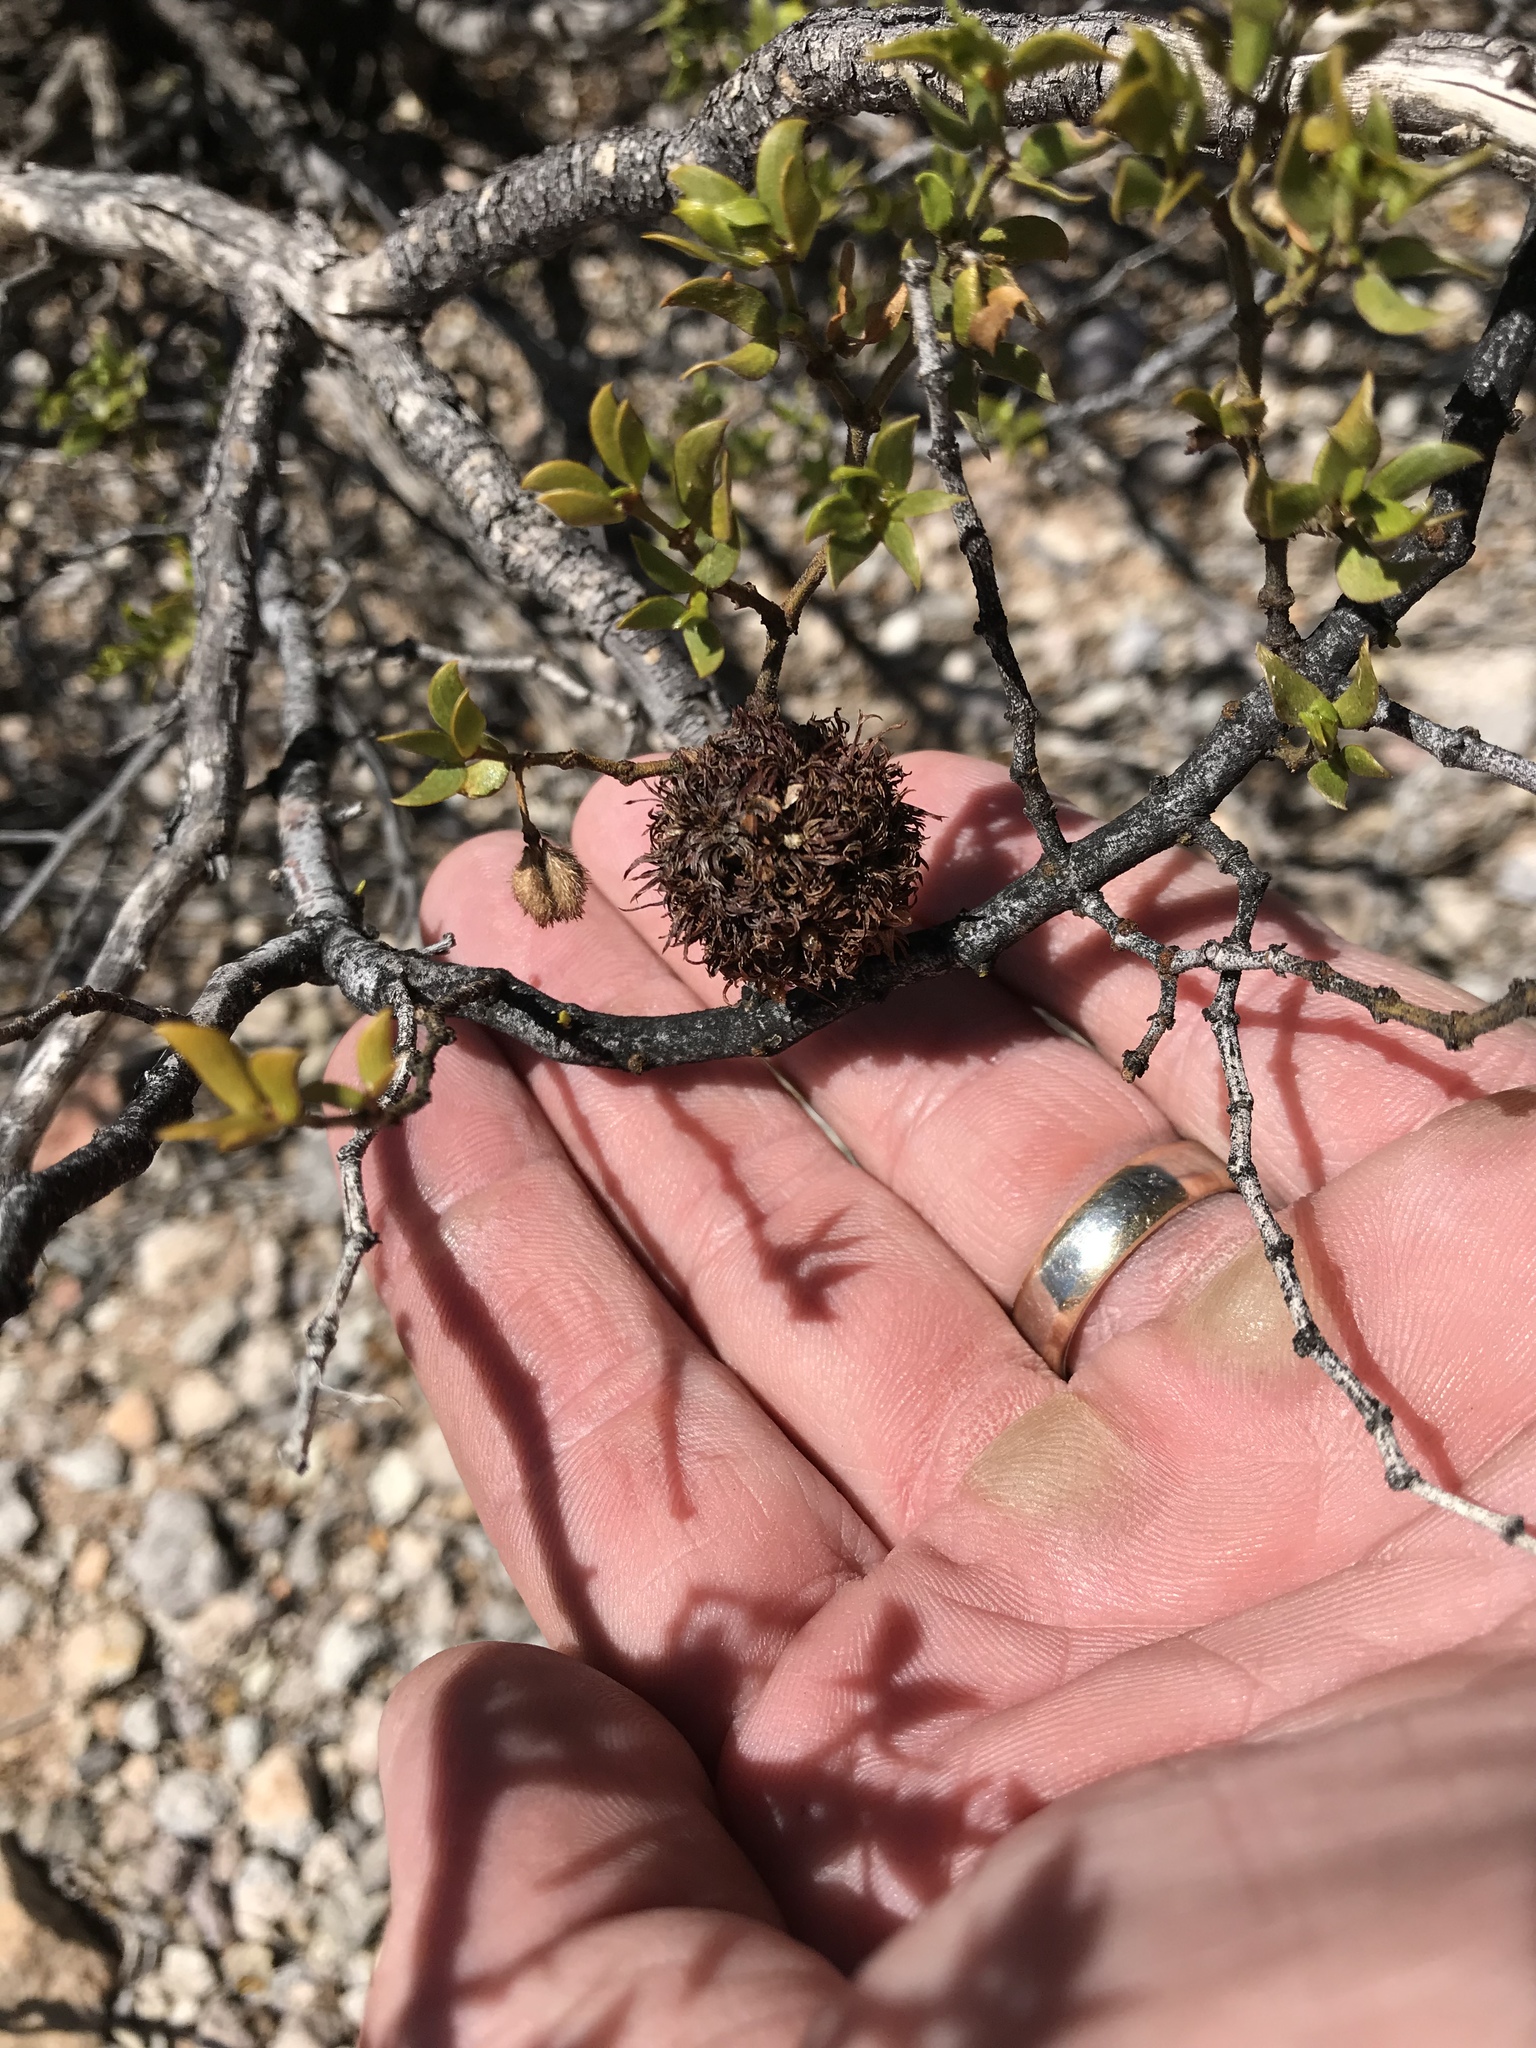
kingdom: Animalia
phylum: Arthropoda
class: Insecta
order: Diptera
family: Cecidomyiidae
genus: Asphondylia
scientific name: Asphondylia auripila
